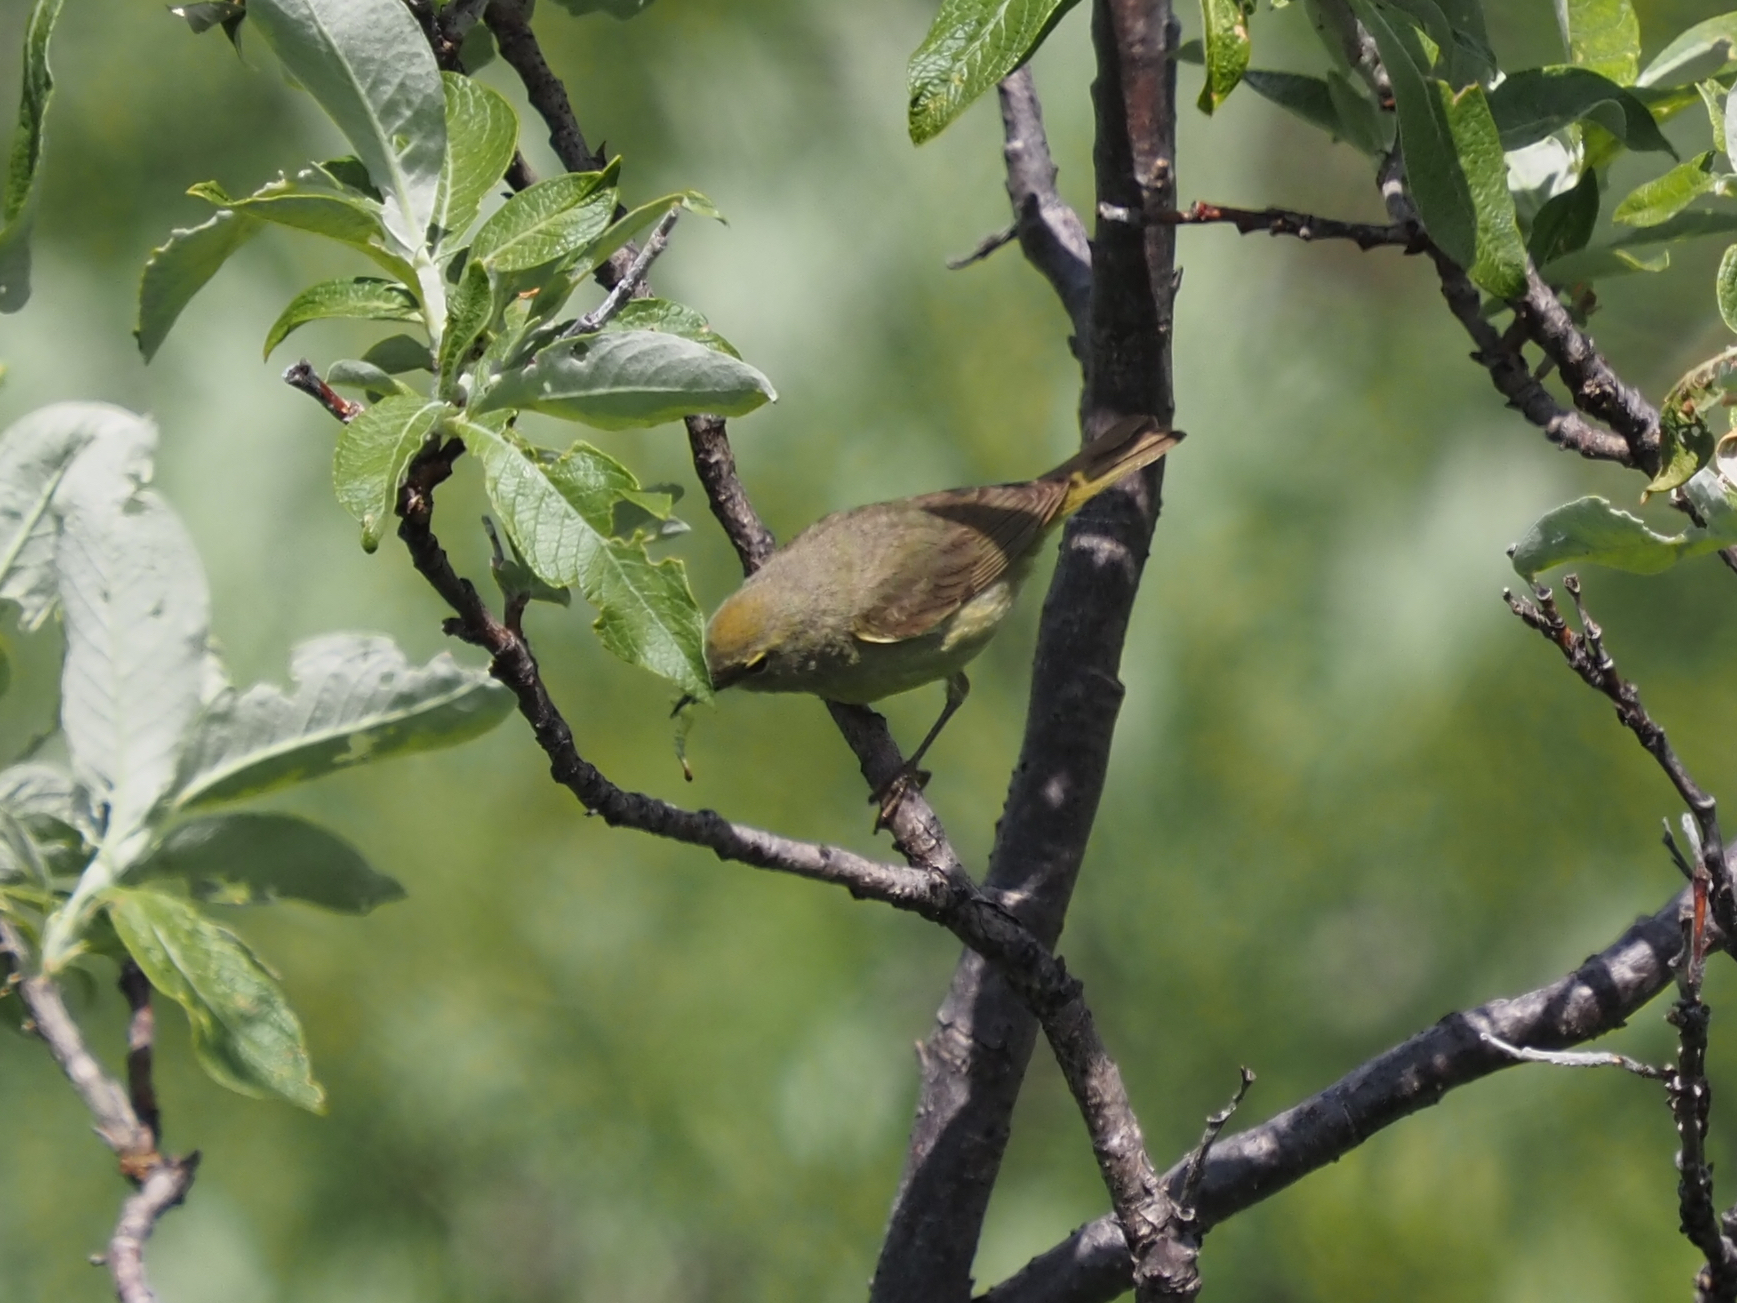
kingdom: Animalia
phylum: Chordata
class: Aves
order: Passeriformes
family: Parulidae
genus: Leiothlypis
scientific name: Leiothlypis celata
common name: Orange-crowned warbler
